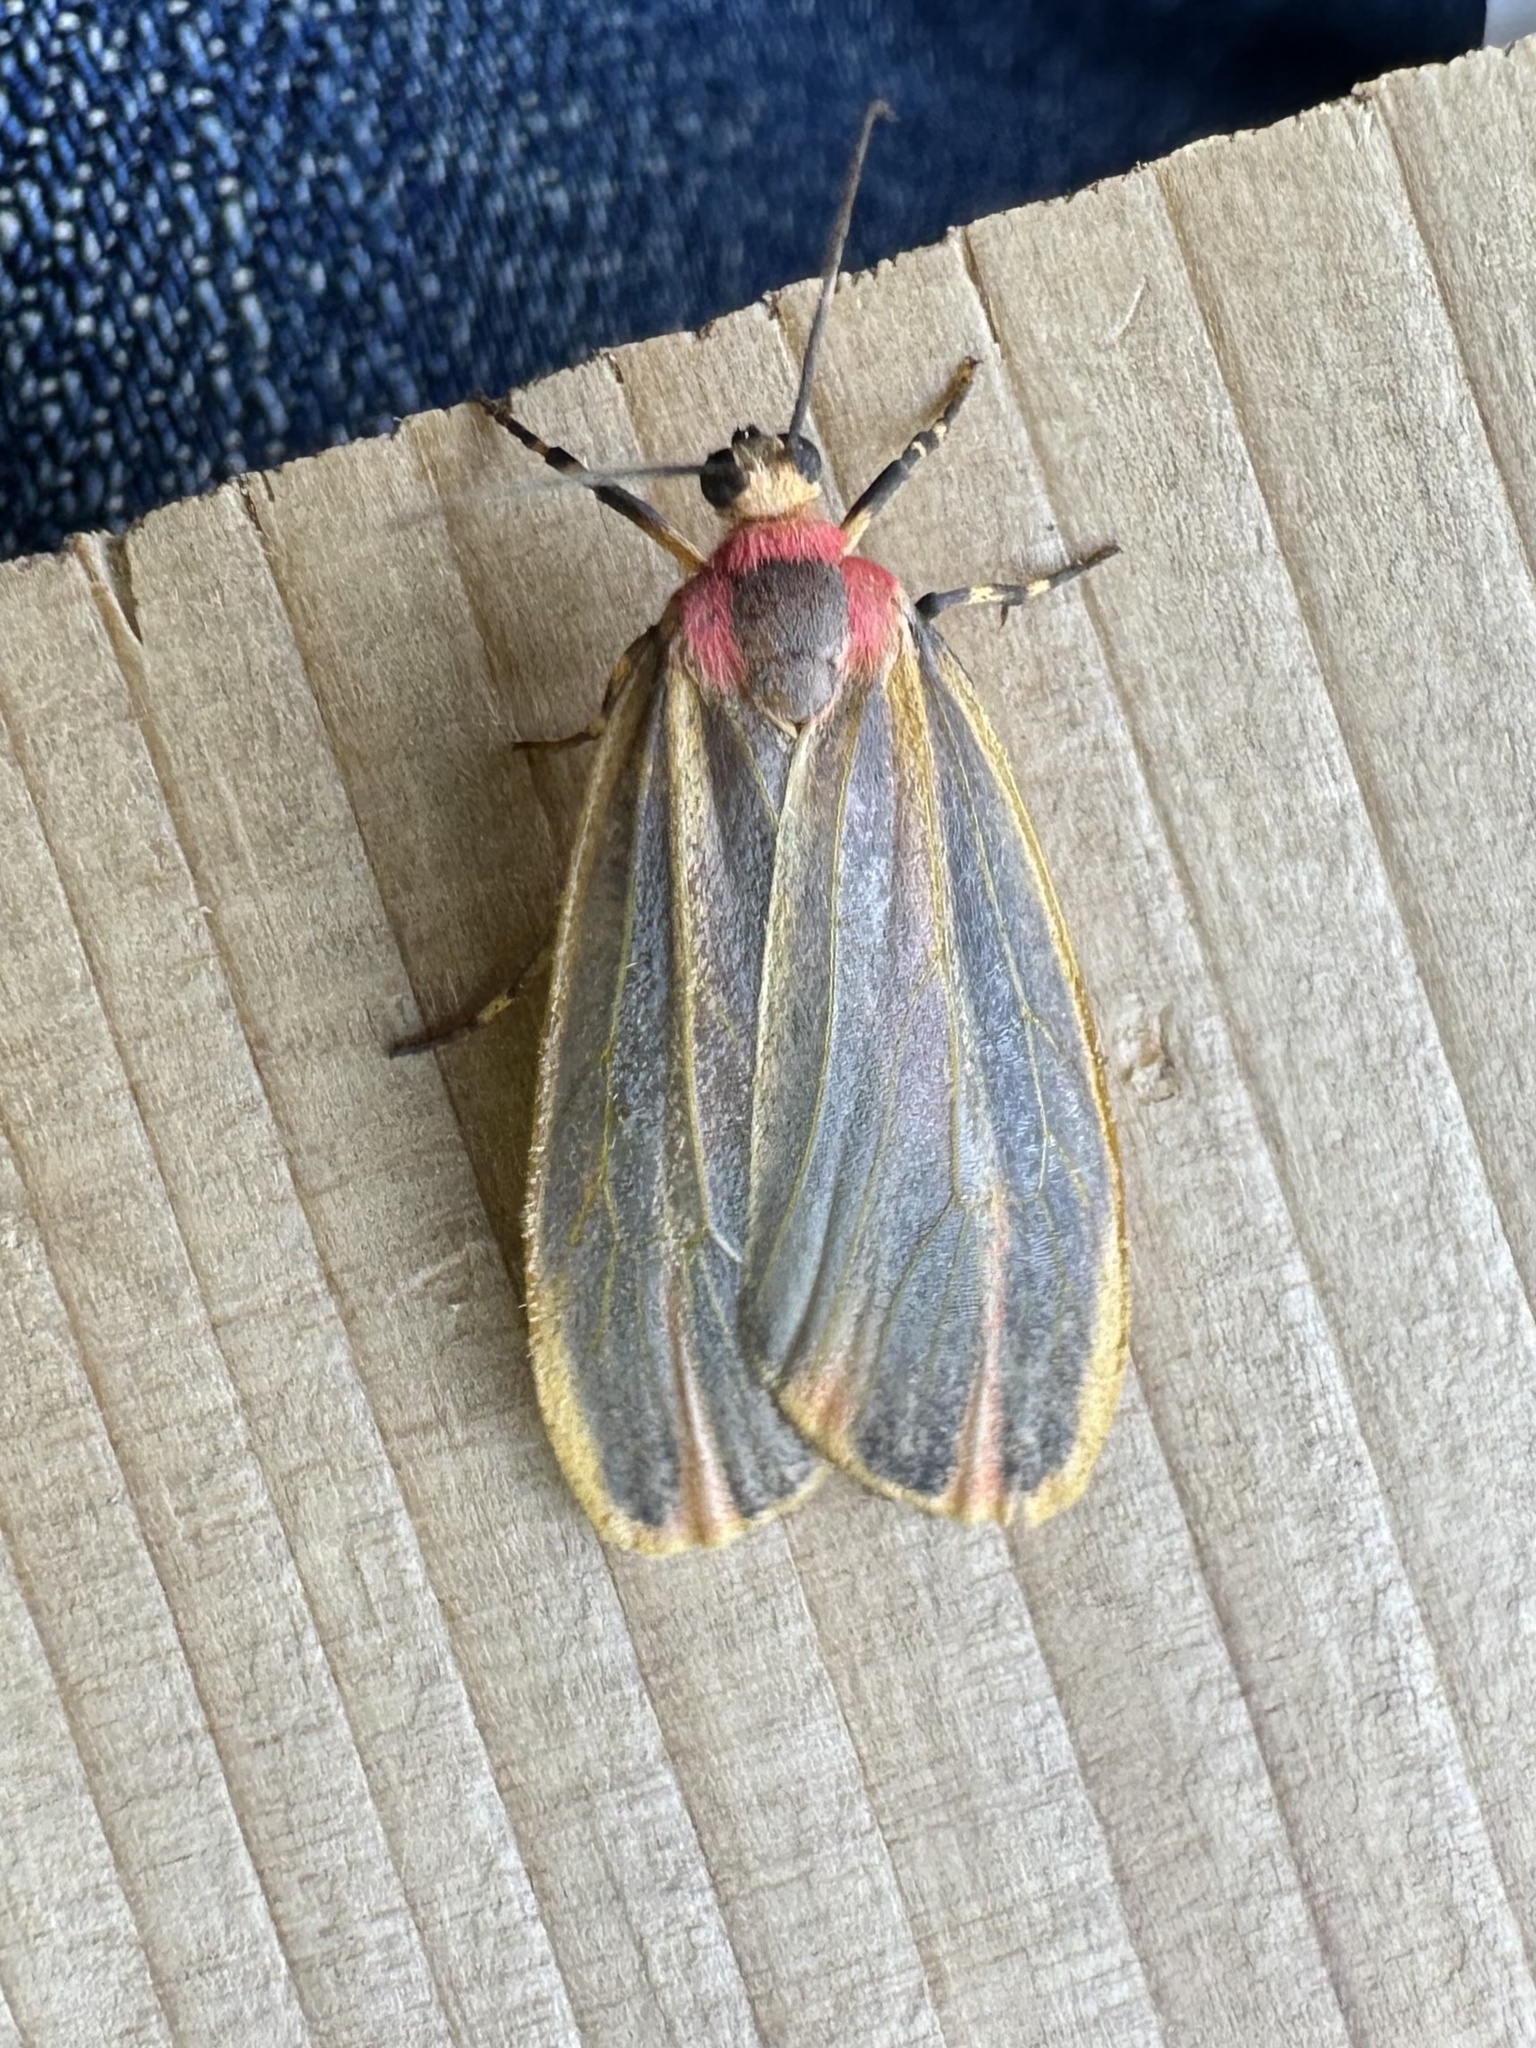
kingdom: Animalia
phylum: Arthropoda
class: Insecta
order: Lepidoptera
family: Erebidae
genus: Hypoprepia
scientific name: Hypoprepia fucosa
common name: Painted lichen moth
